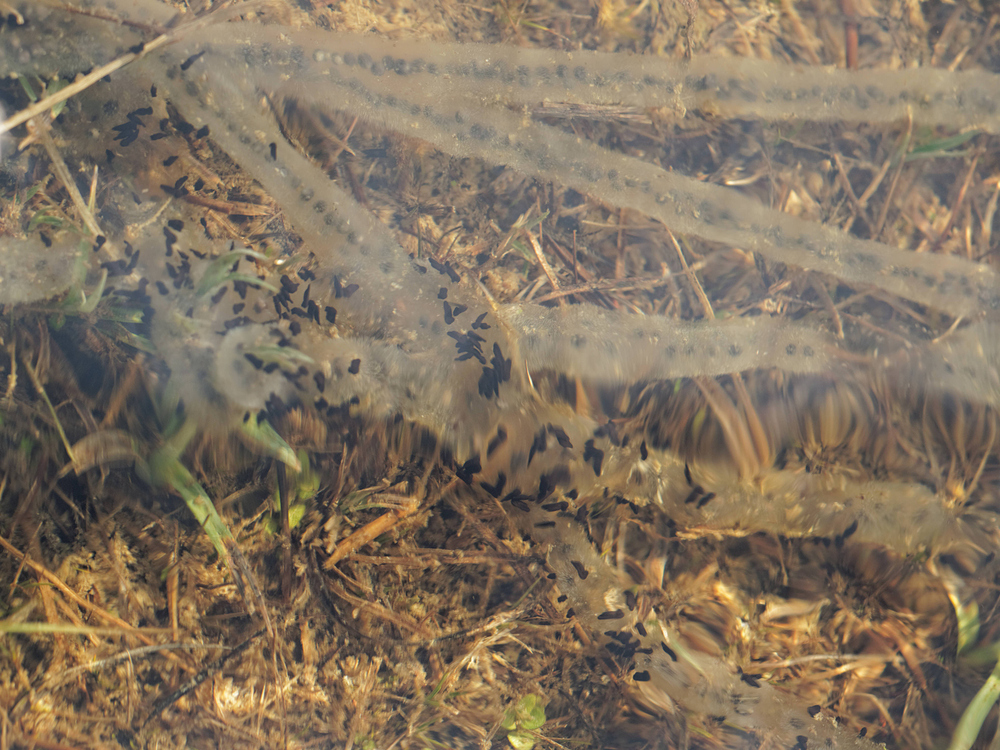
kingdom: Animalia
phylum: Chordata
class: Amphibia
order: Anura
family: Bufonidae
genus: Epidalea
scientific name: Epidalea calamita
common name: Natterjack toad
